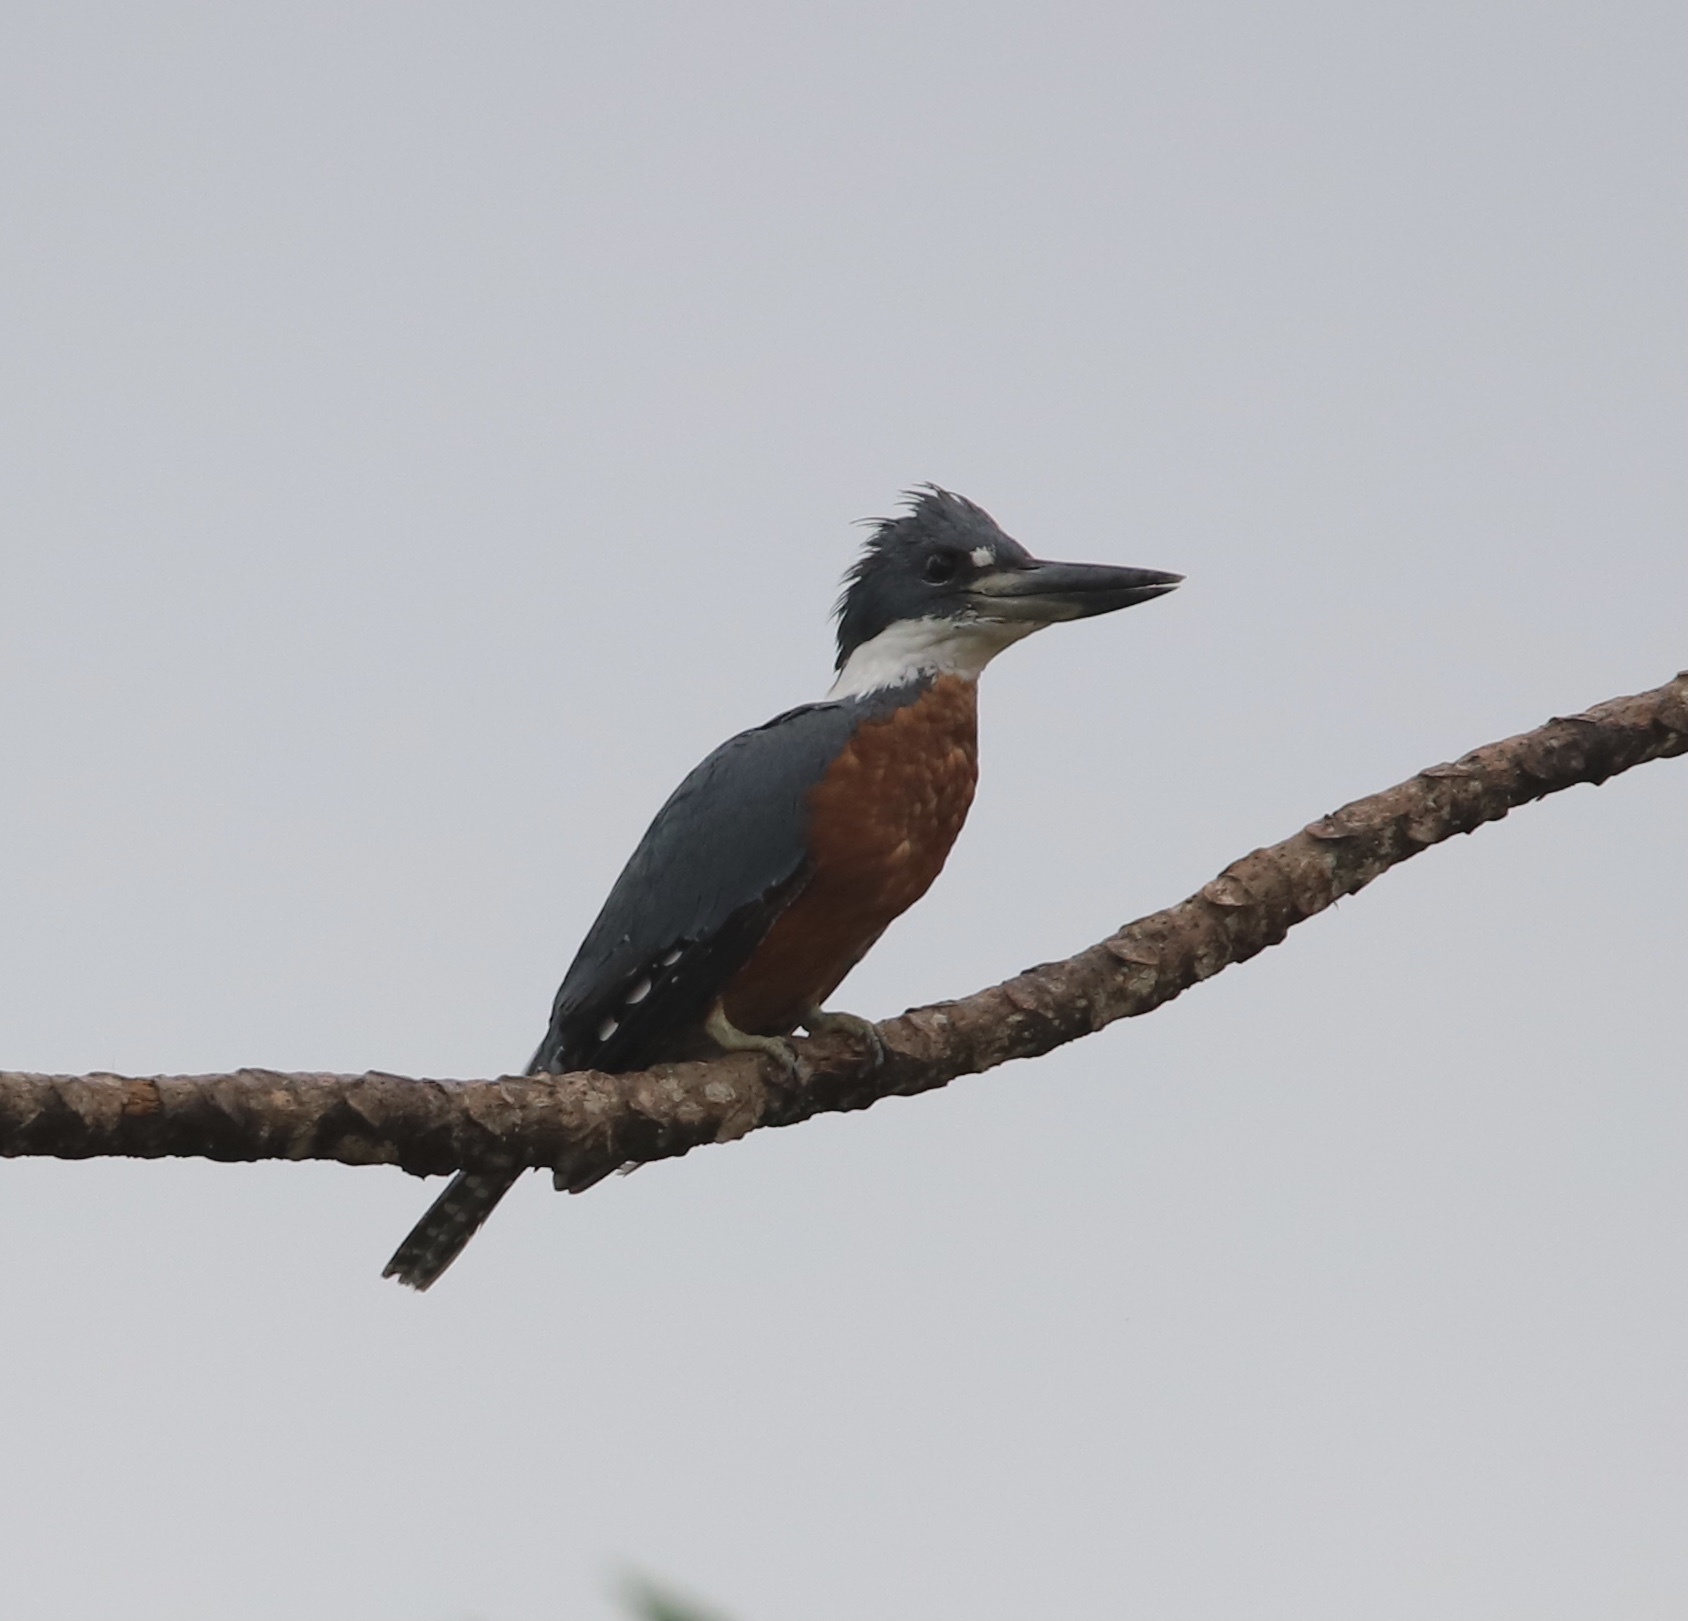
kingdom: Animalia
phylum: Chordata
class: Aves
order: Coraciiformes
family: Alcedinidae
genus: Megaceryle
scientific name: Megaceryle torquata
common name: Ringed kingfisher
